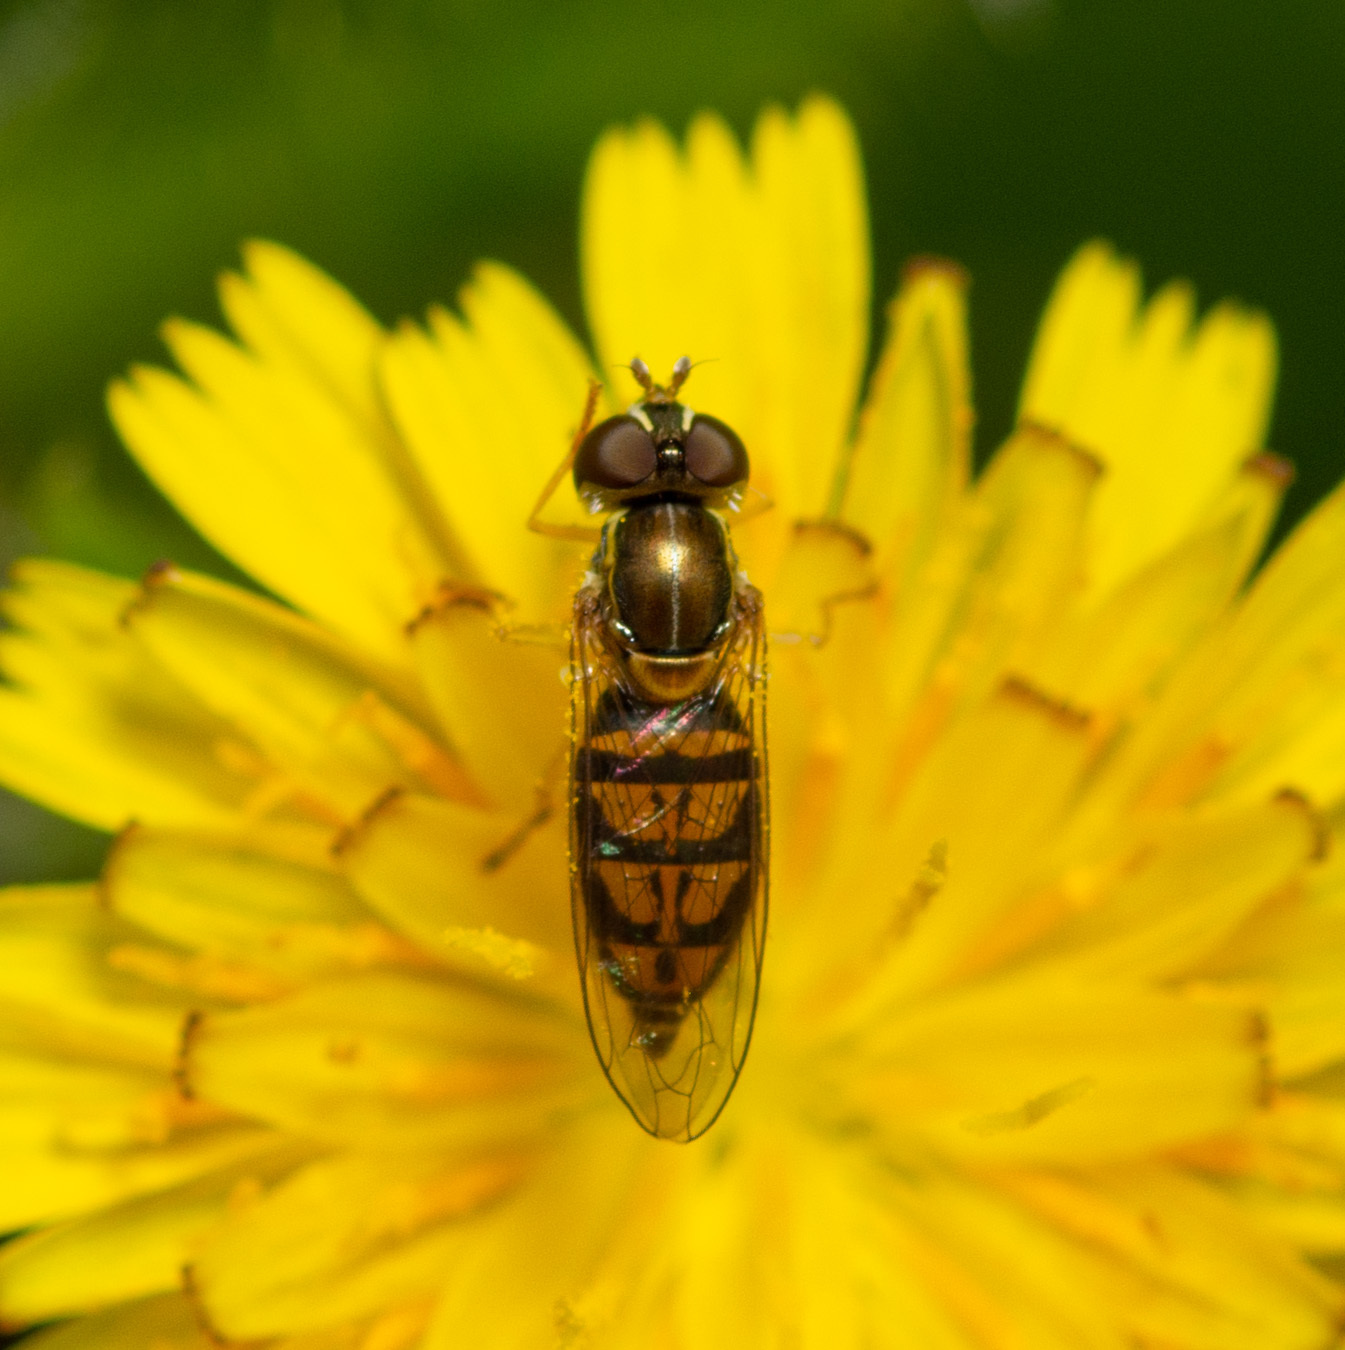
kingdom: Animalia
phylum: Arthropoda
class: Insecta
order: Diptera
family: Syrphidae
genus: Toxomerus
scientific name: Toxomerus marginatus
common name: Syrphid fly
